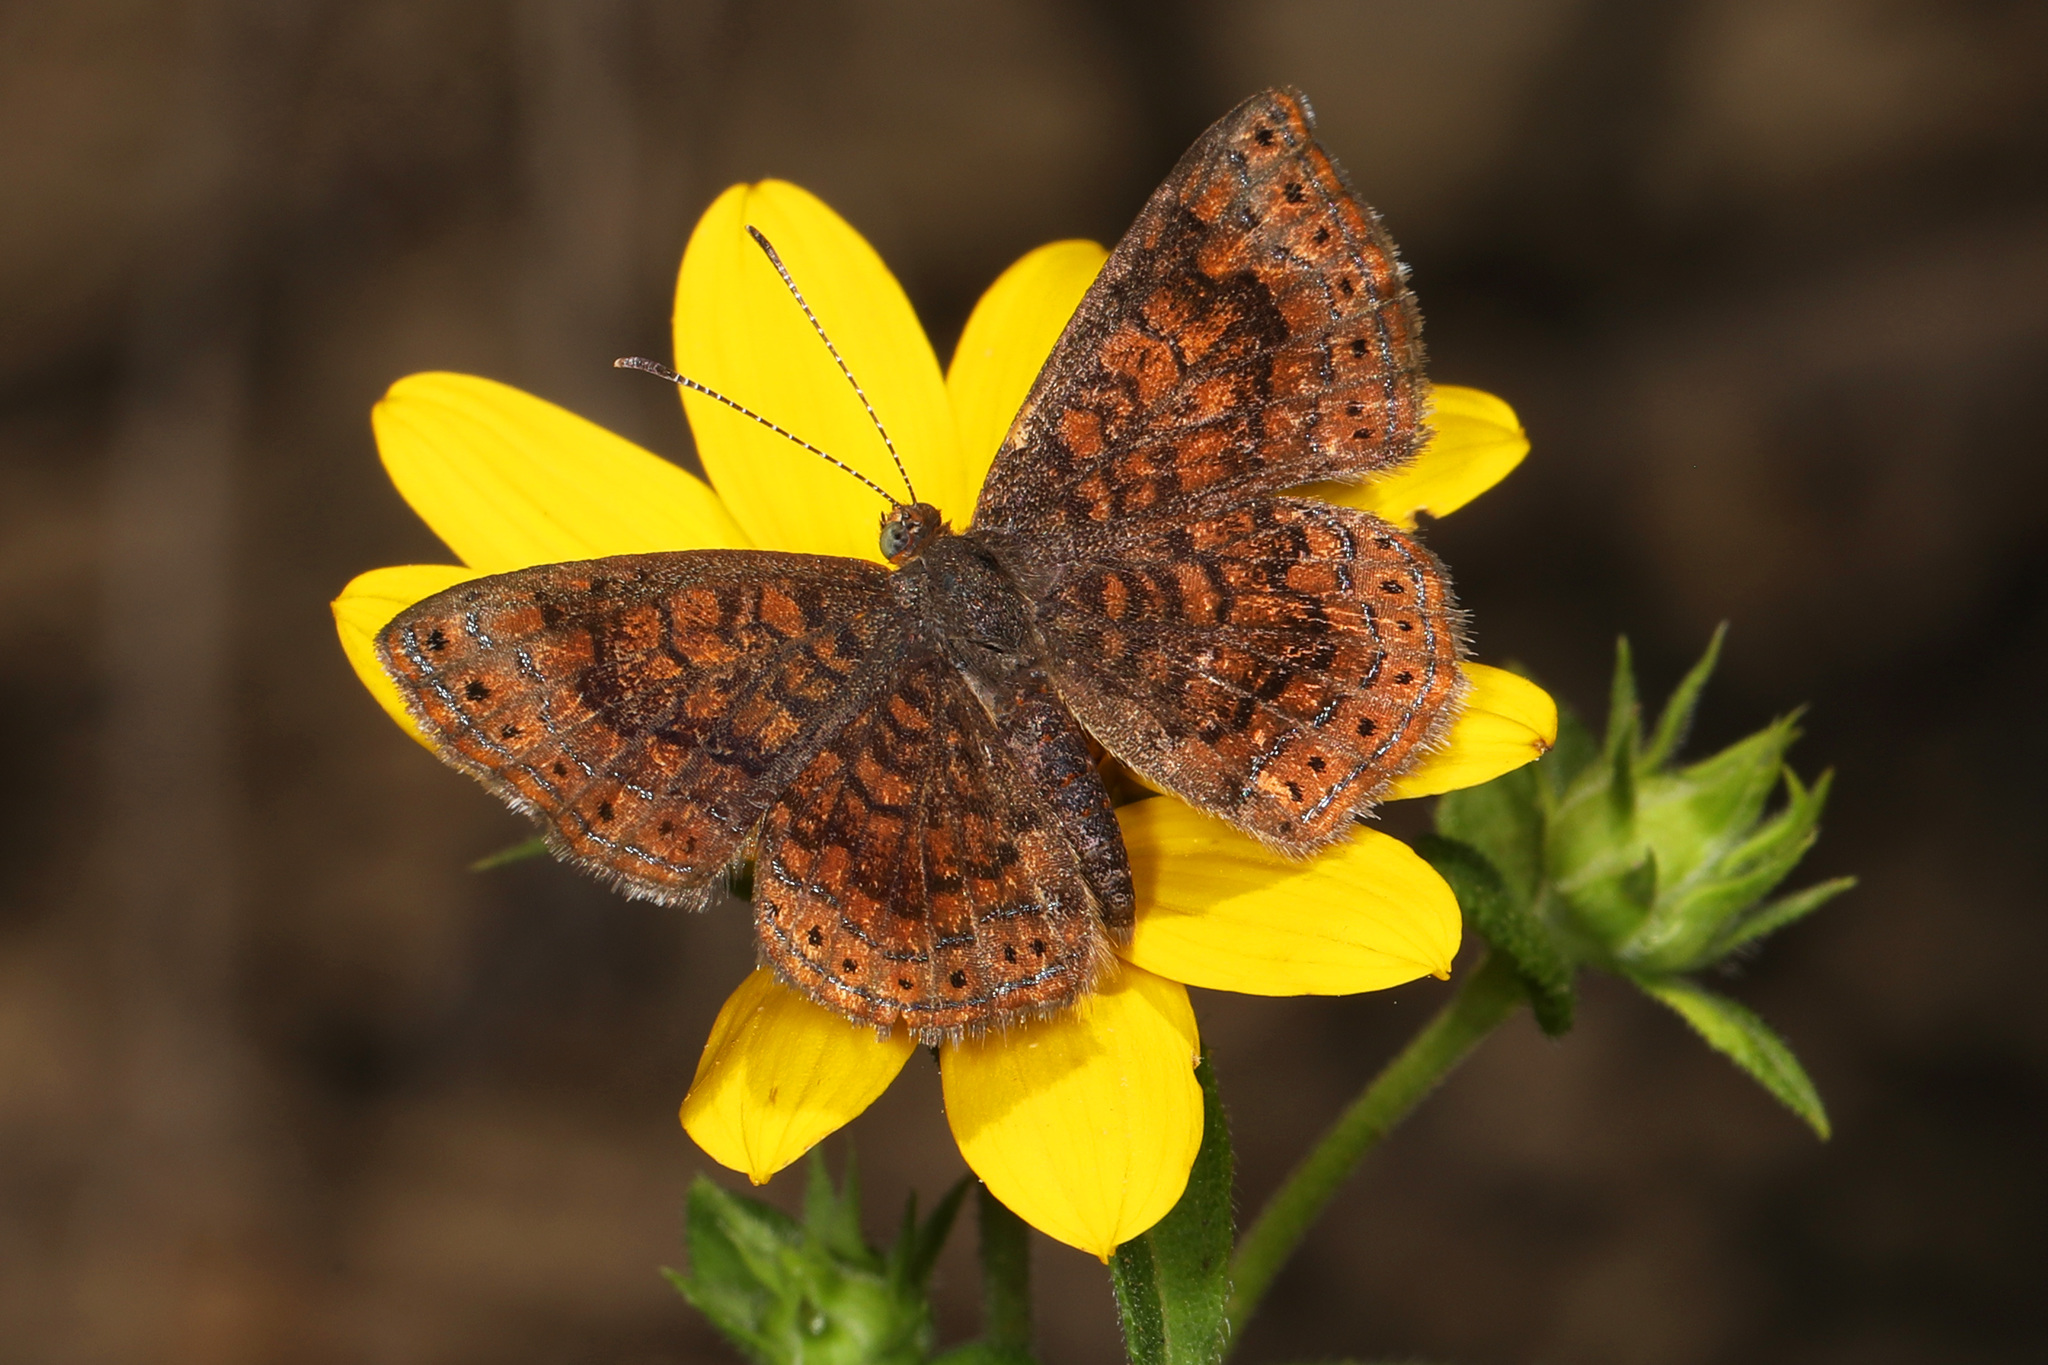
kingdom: Animalia
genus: Calephelis
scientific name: Calephelis borealis
